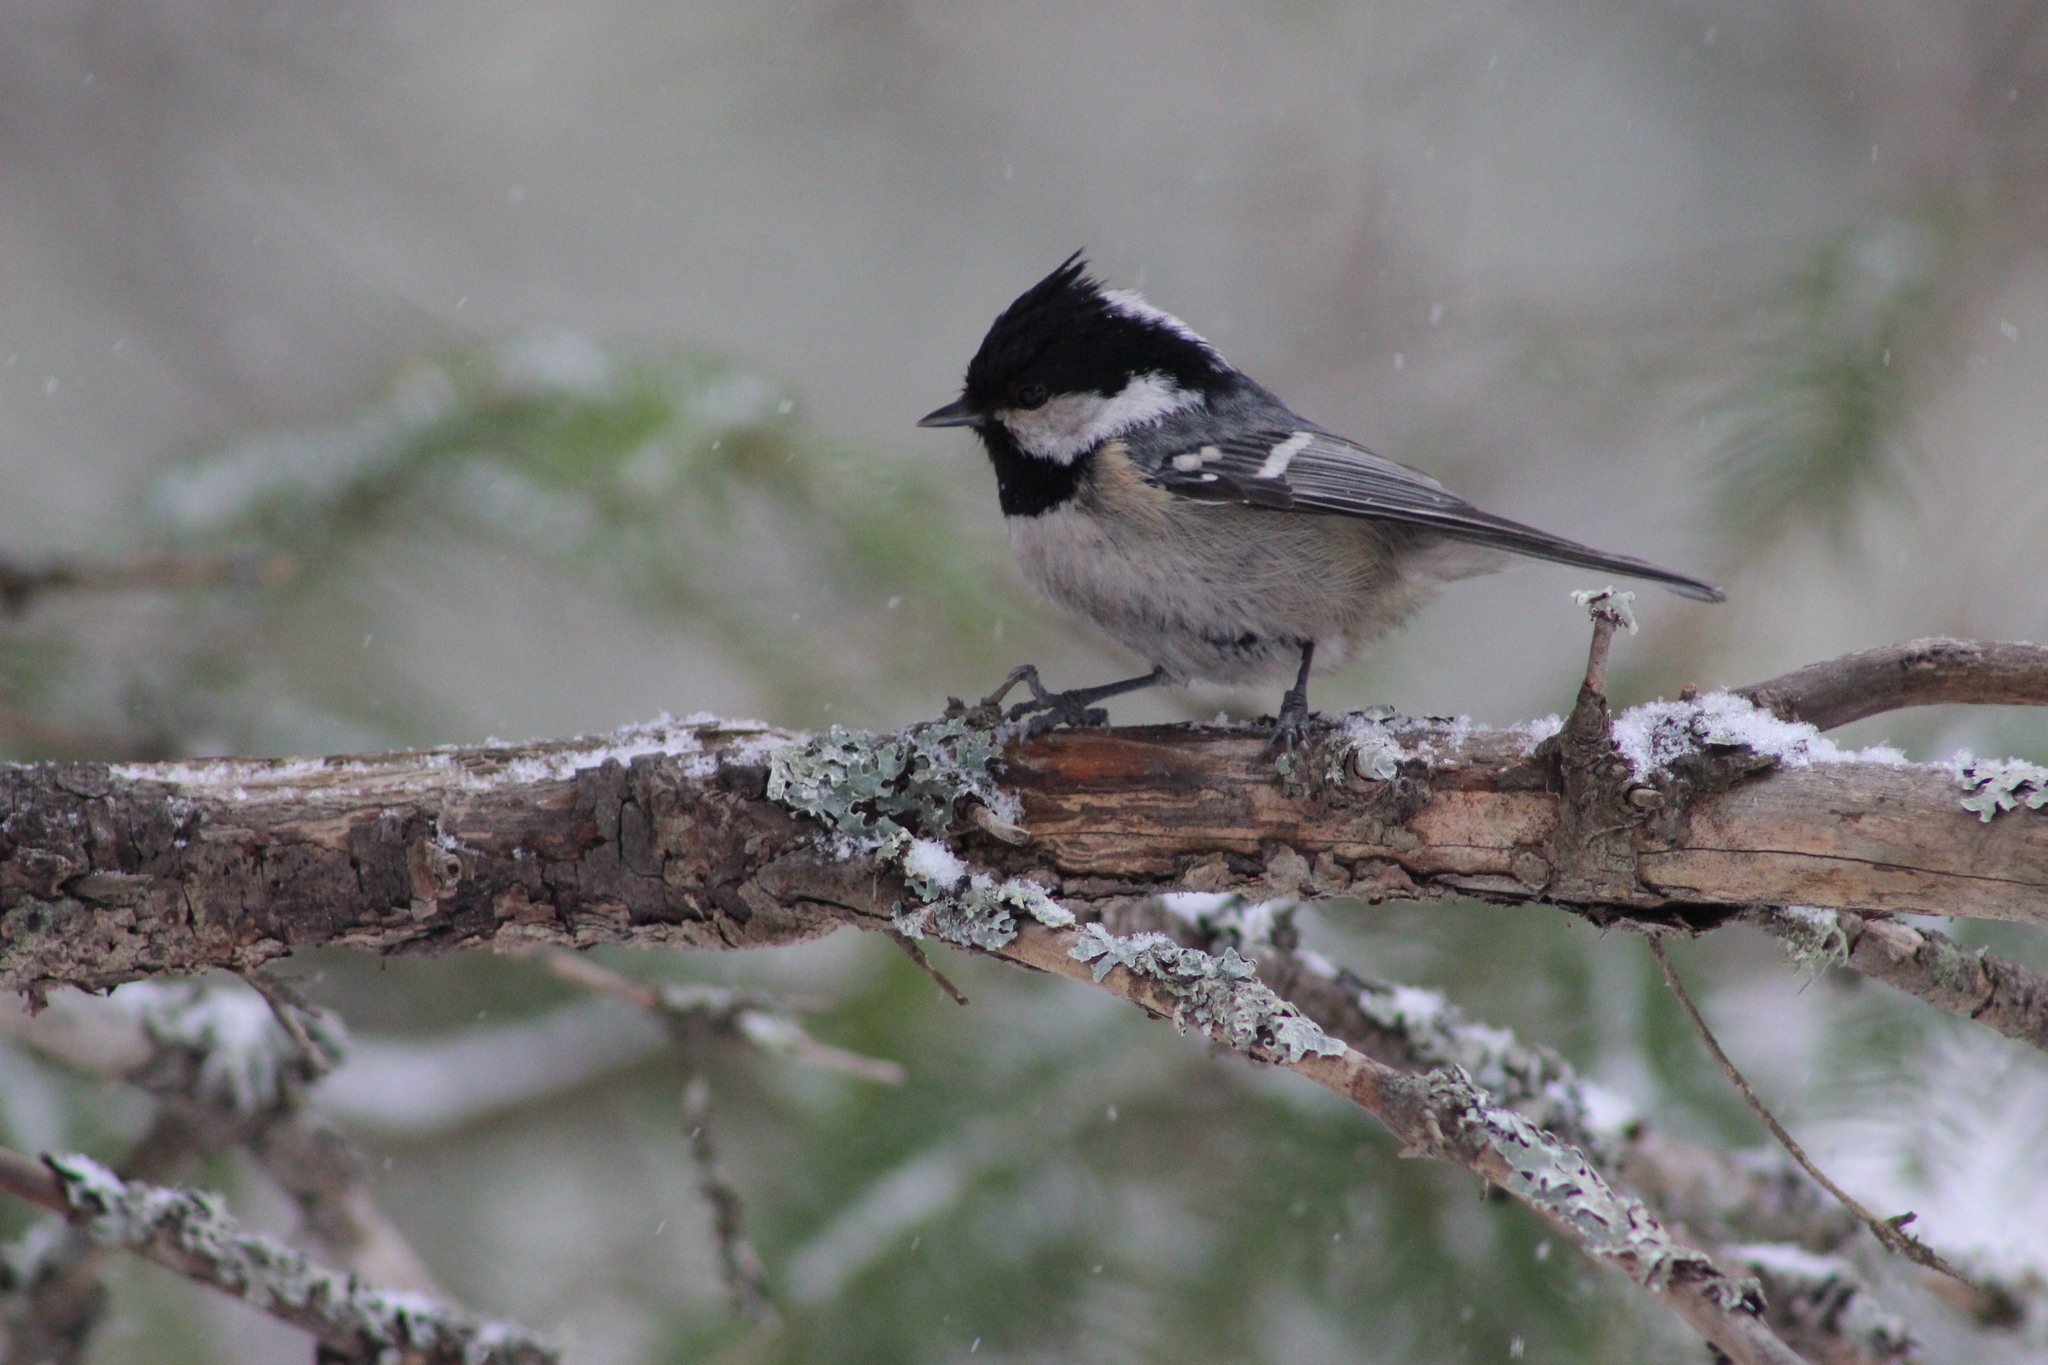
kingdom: Animalia
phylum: Chordata
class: Aves
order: Passeriformes
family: Paridae
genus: Periparus
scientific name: Periparus ater
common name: Coal tit
